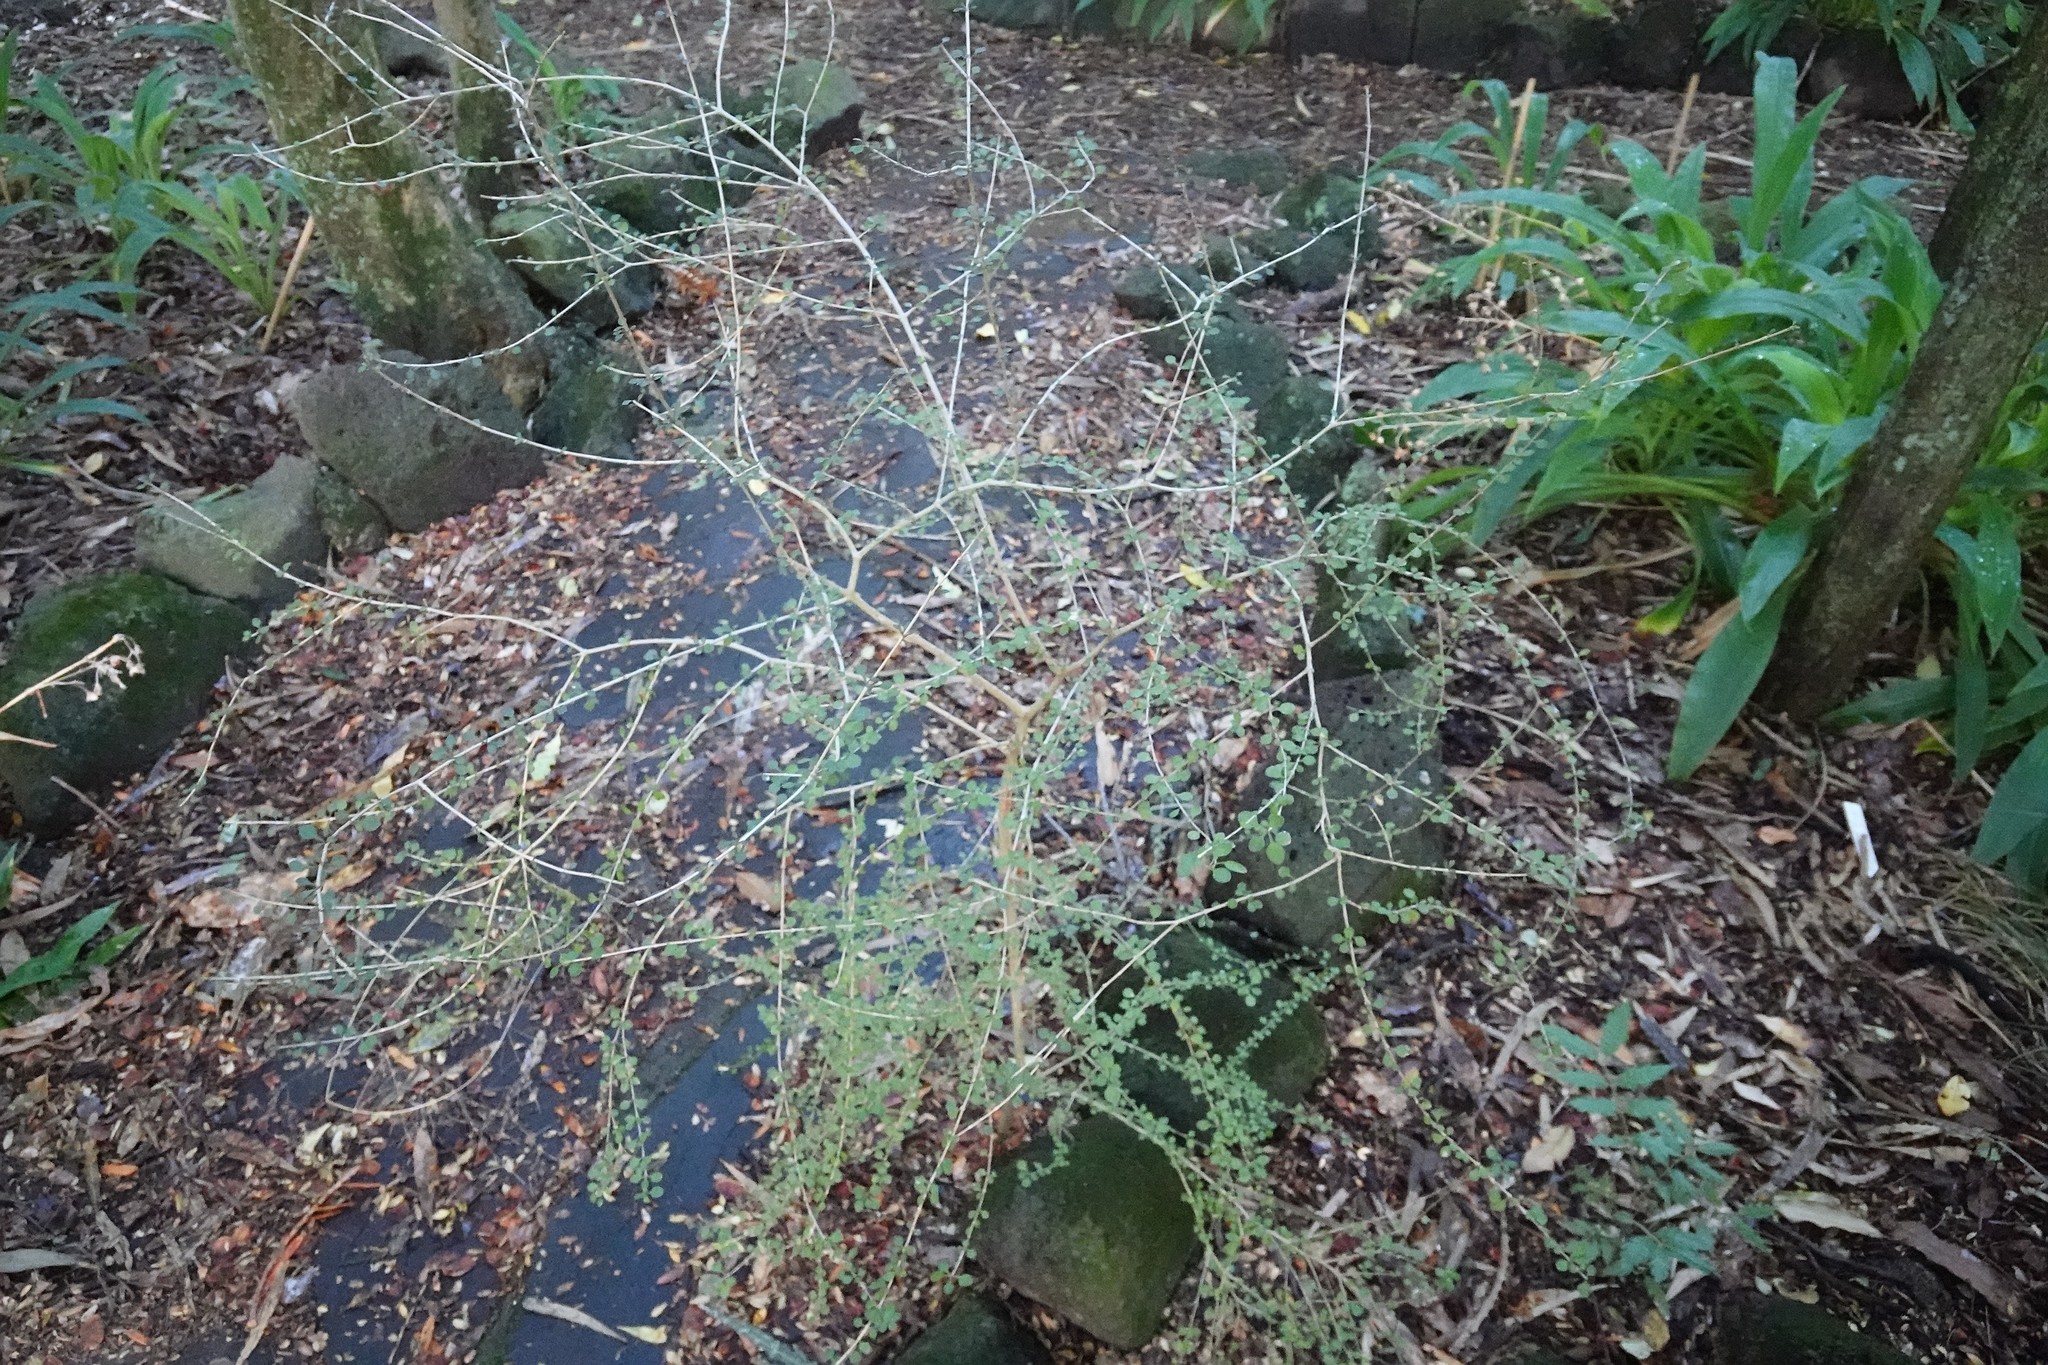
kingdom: Plantae
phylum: Tracheophyta
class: Magnoliopsida
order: Gentianales
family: Rubiaceae
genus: Coprosma
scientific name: Coprosma virescens
